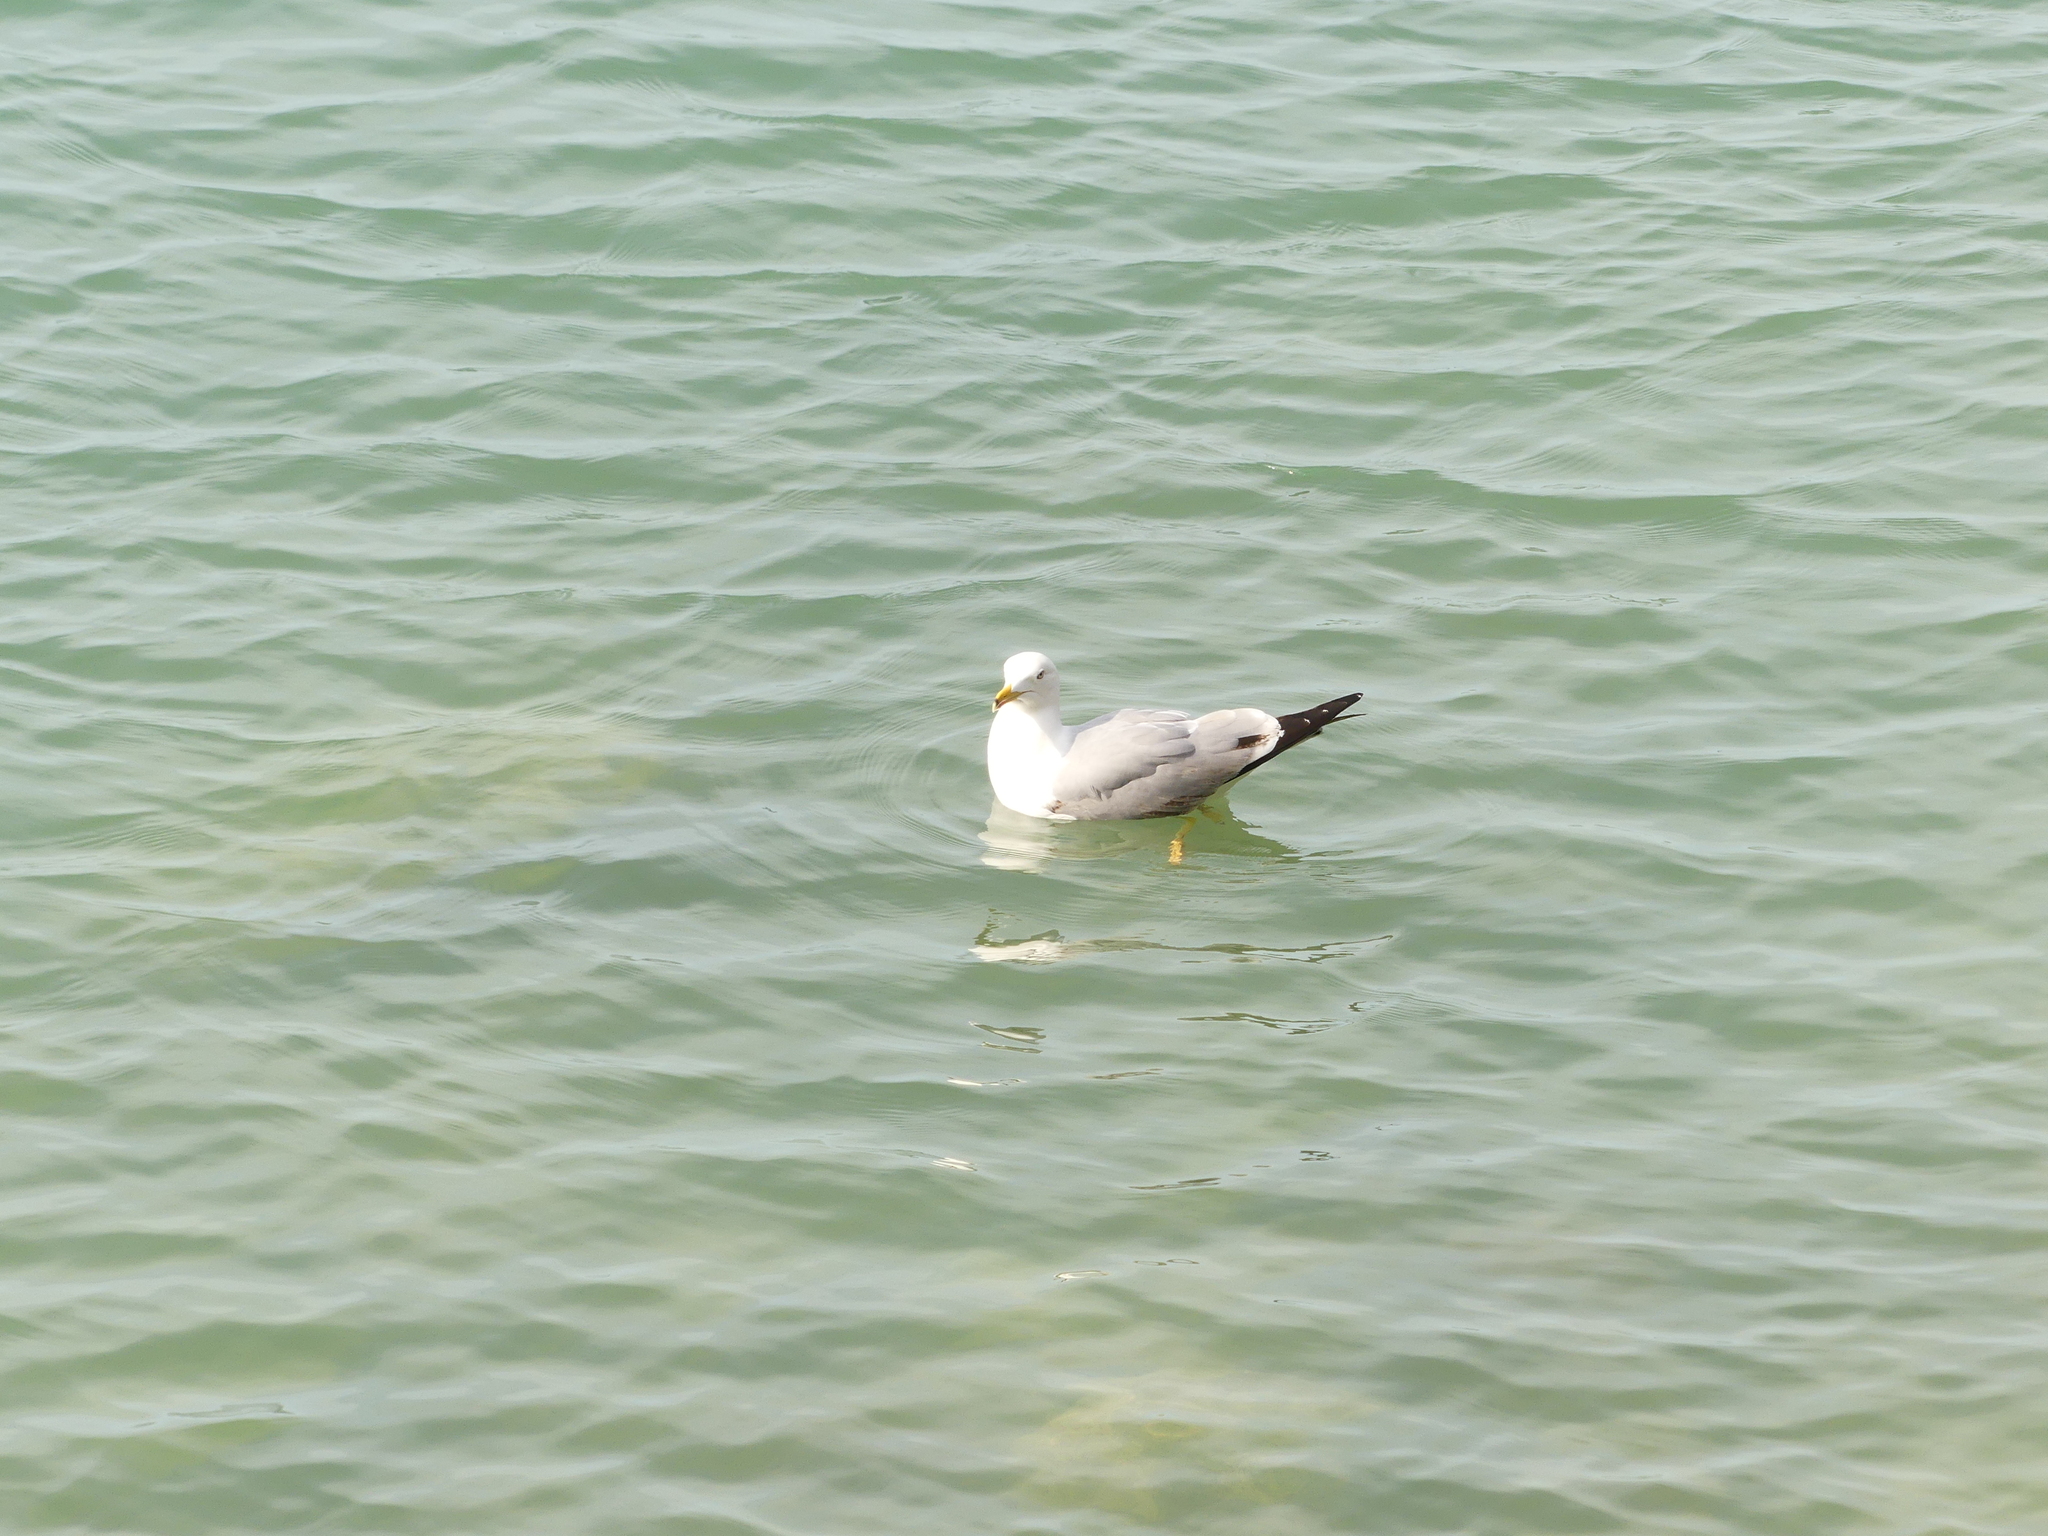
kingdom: Animalia
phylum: Chordata
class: Aves
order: Charadriiformes
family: Laridae
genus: Larus
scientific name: Larus michahellis
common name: Yellow-legged gull
